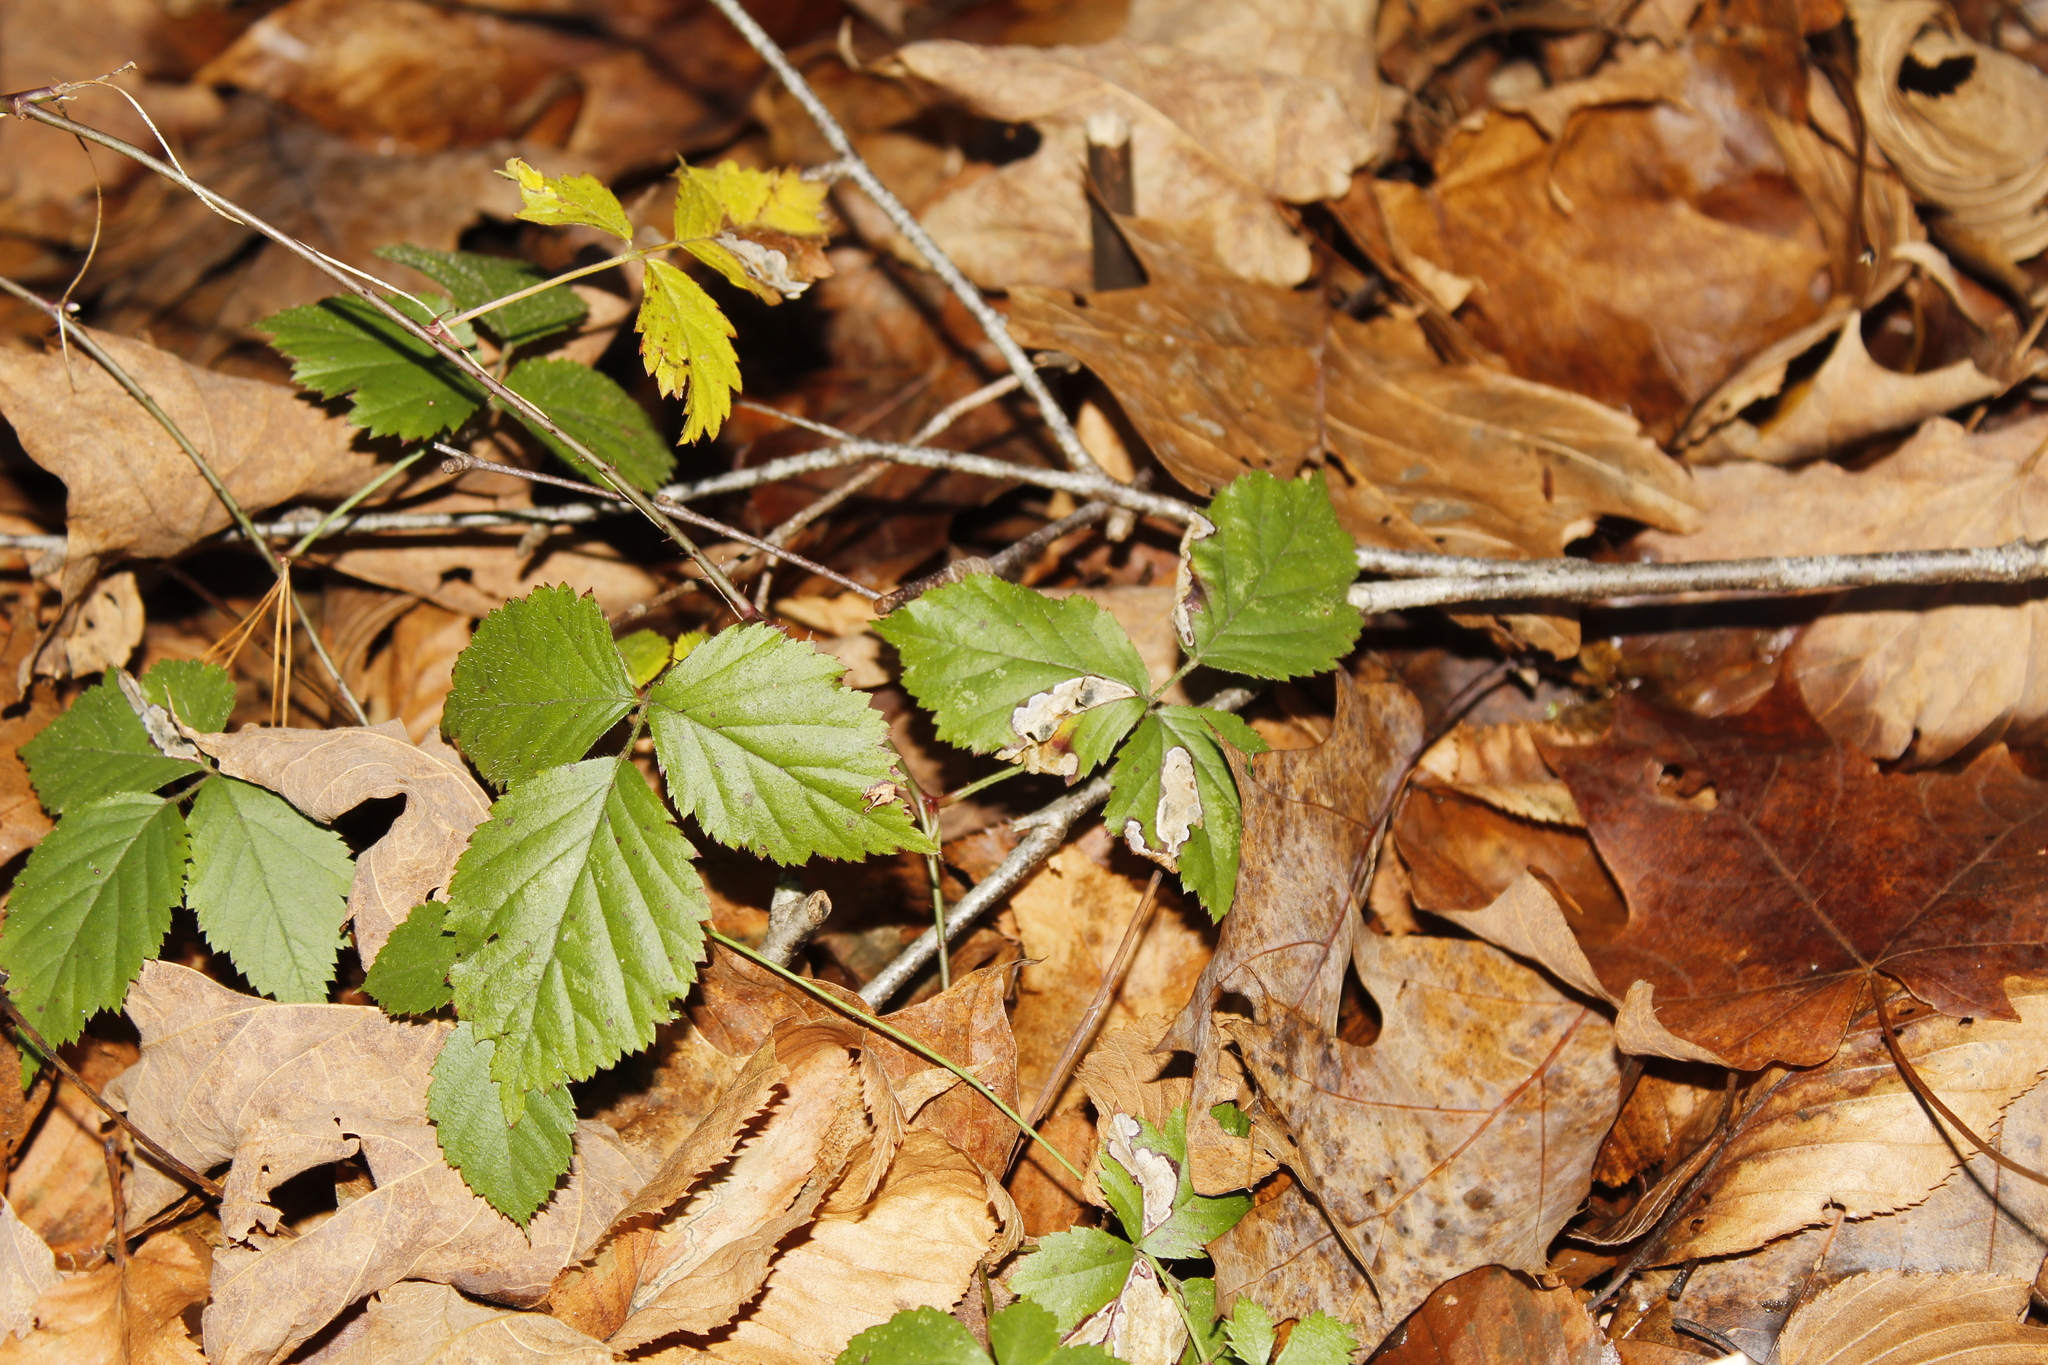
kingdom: Plantae
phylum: Tracheophyta
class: Magnoliopsida
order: Rosales
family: Rosaceae
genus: Rubus
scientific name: Rubus
